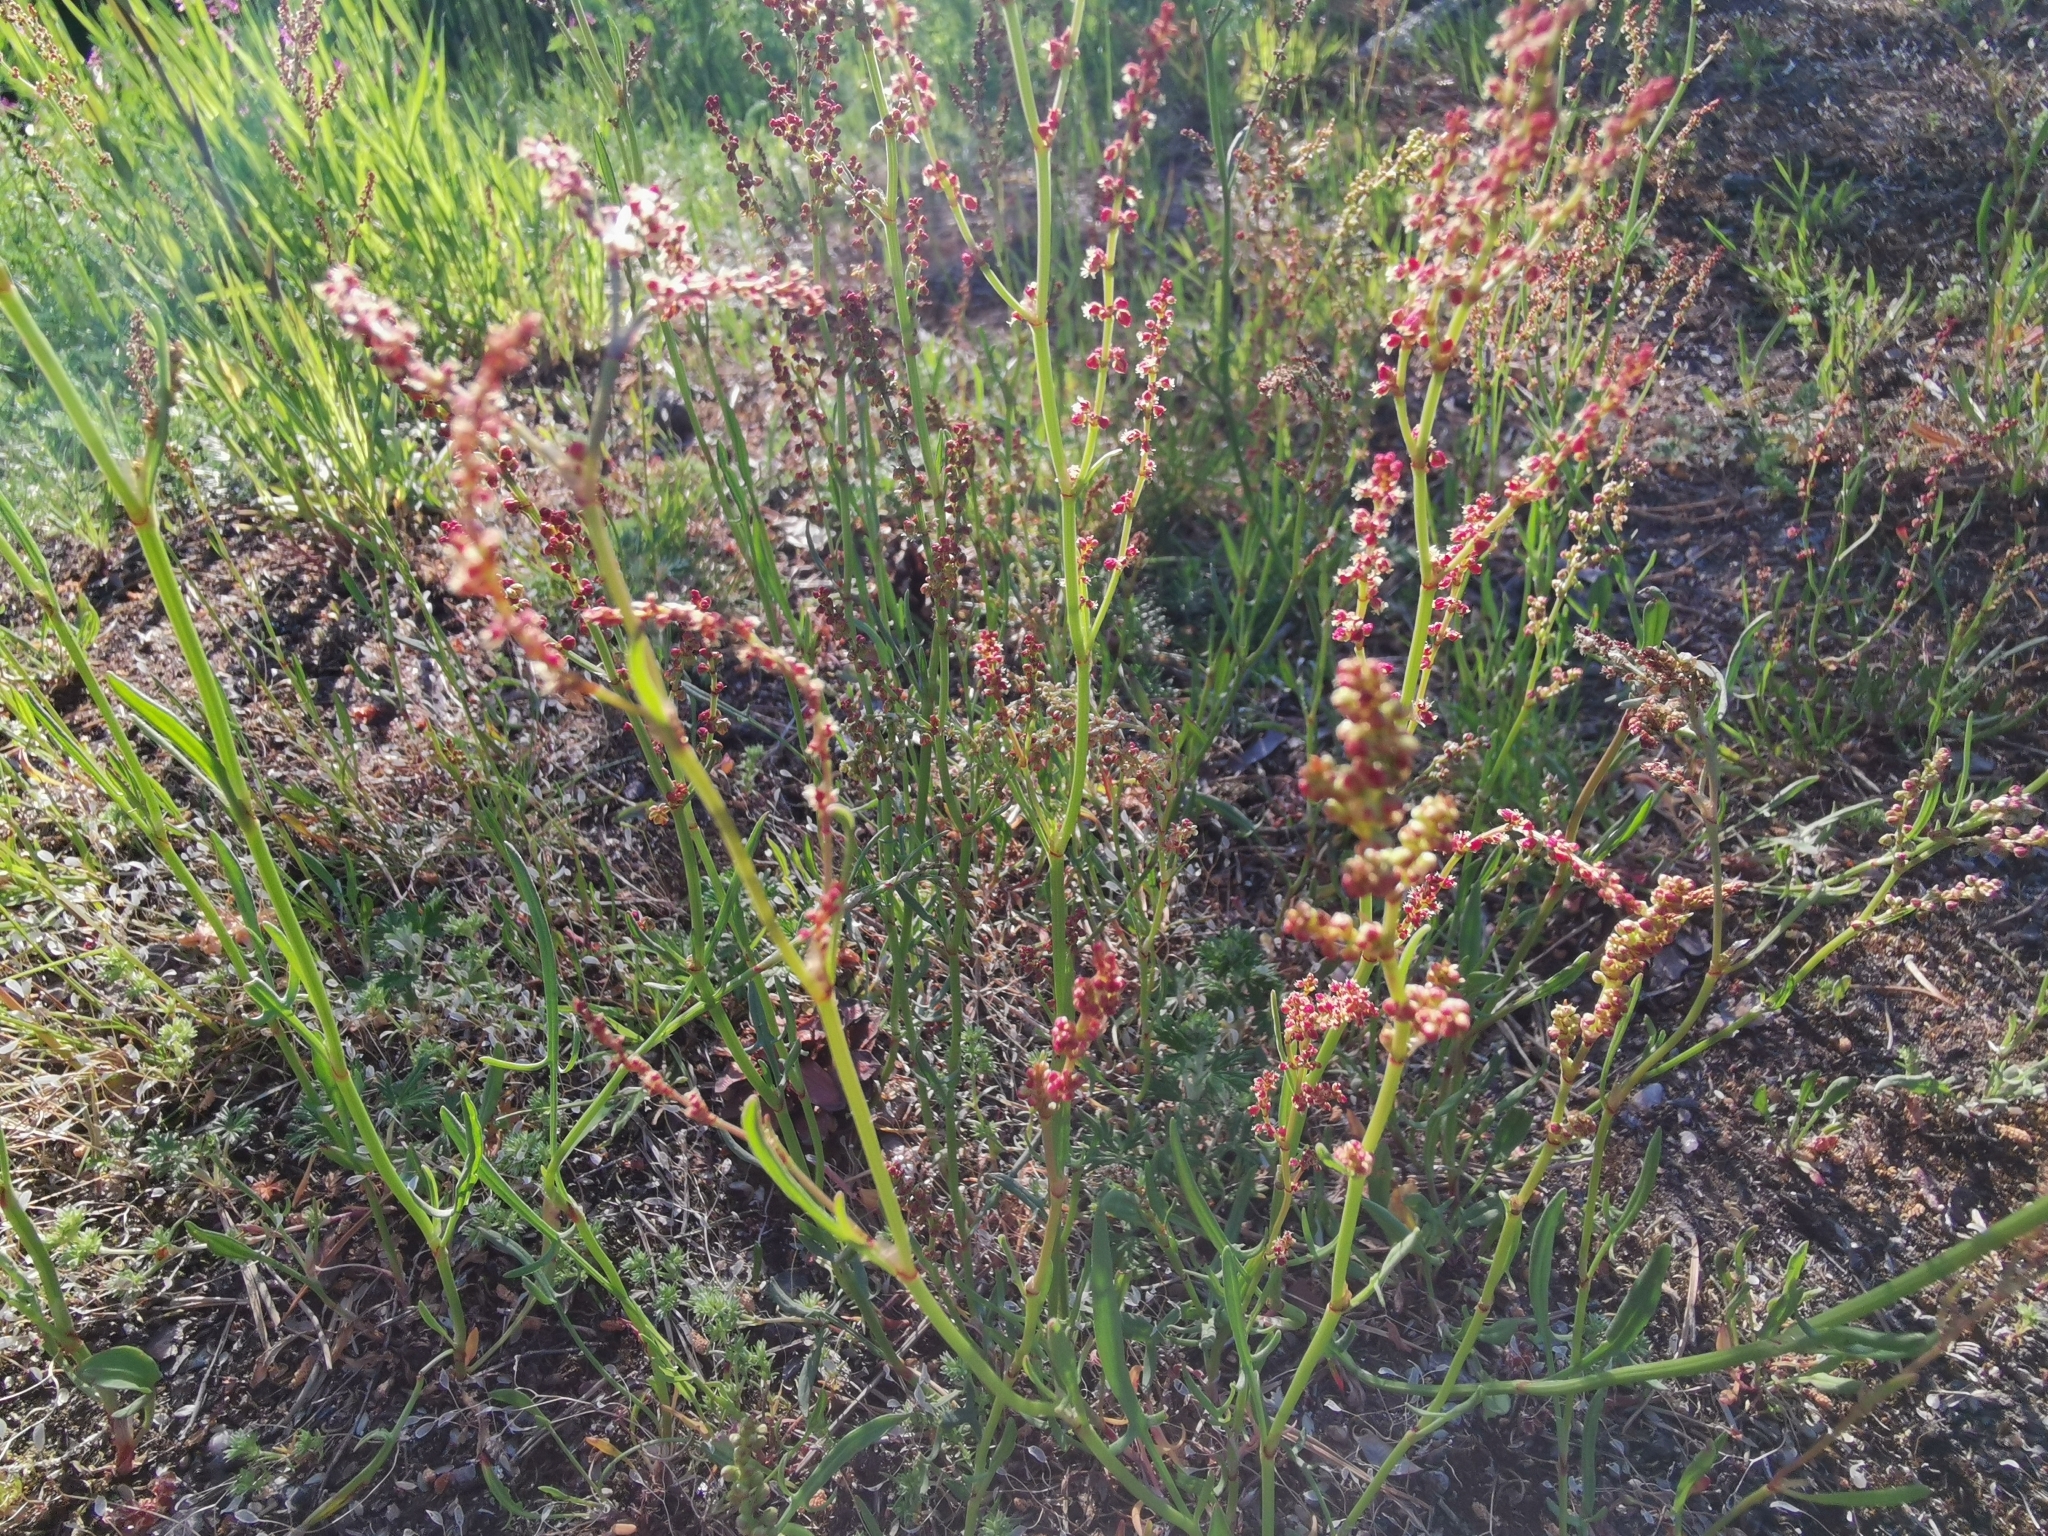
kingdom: Plantae
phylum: Tracheophyta
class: Magnoliopsida
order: Caryophyllales
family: Polygonaceae
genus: Rumex
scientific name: Rumex acetosella
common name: Common sheep sorrel
